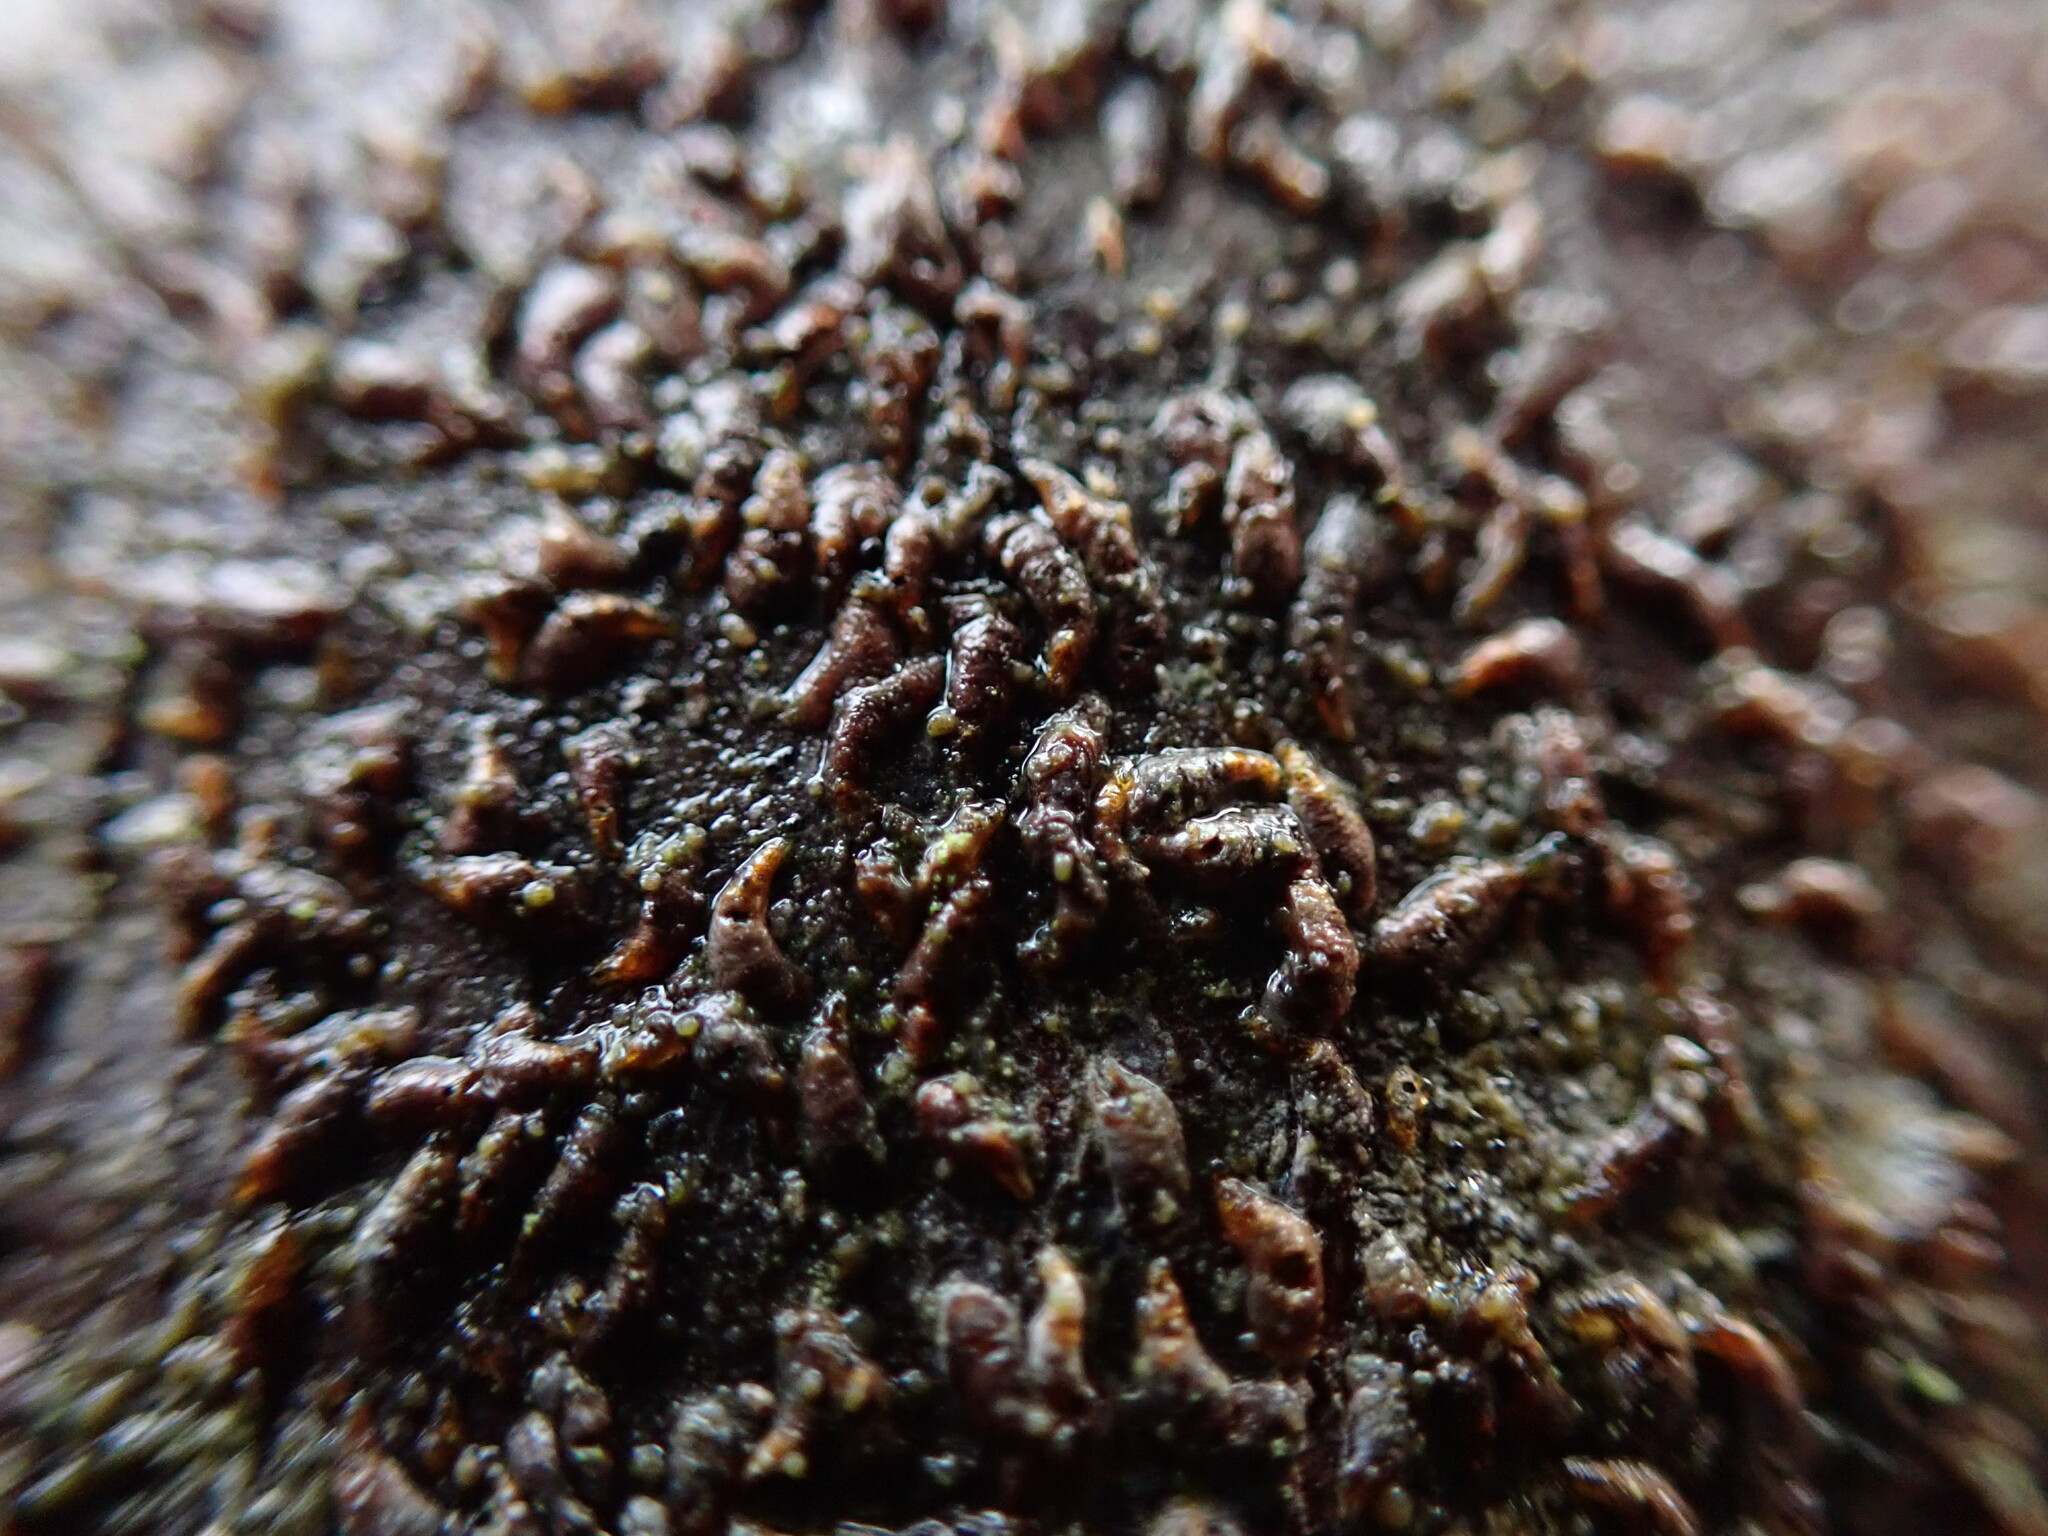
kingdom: Animalia
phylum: Arthropoda
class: Insecta
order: Hemiptera
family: Diaspididae
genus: Lepidosaphes
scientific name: Lepidosaphes ulmi
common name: Oystershell scale
